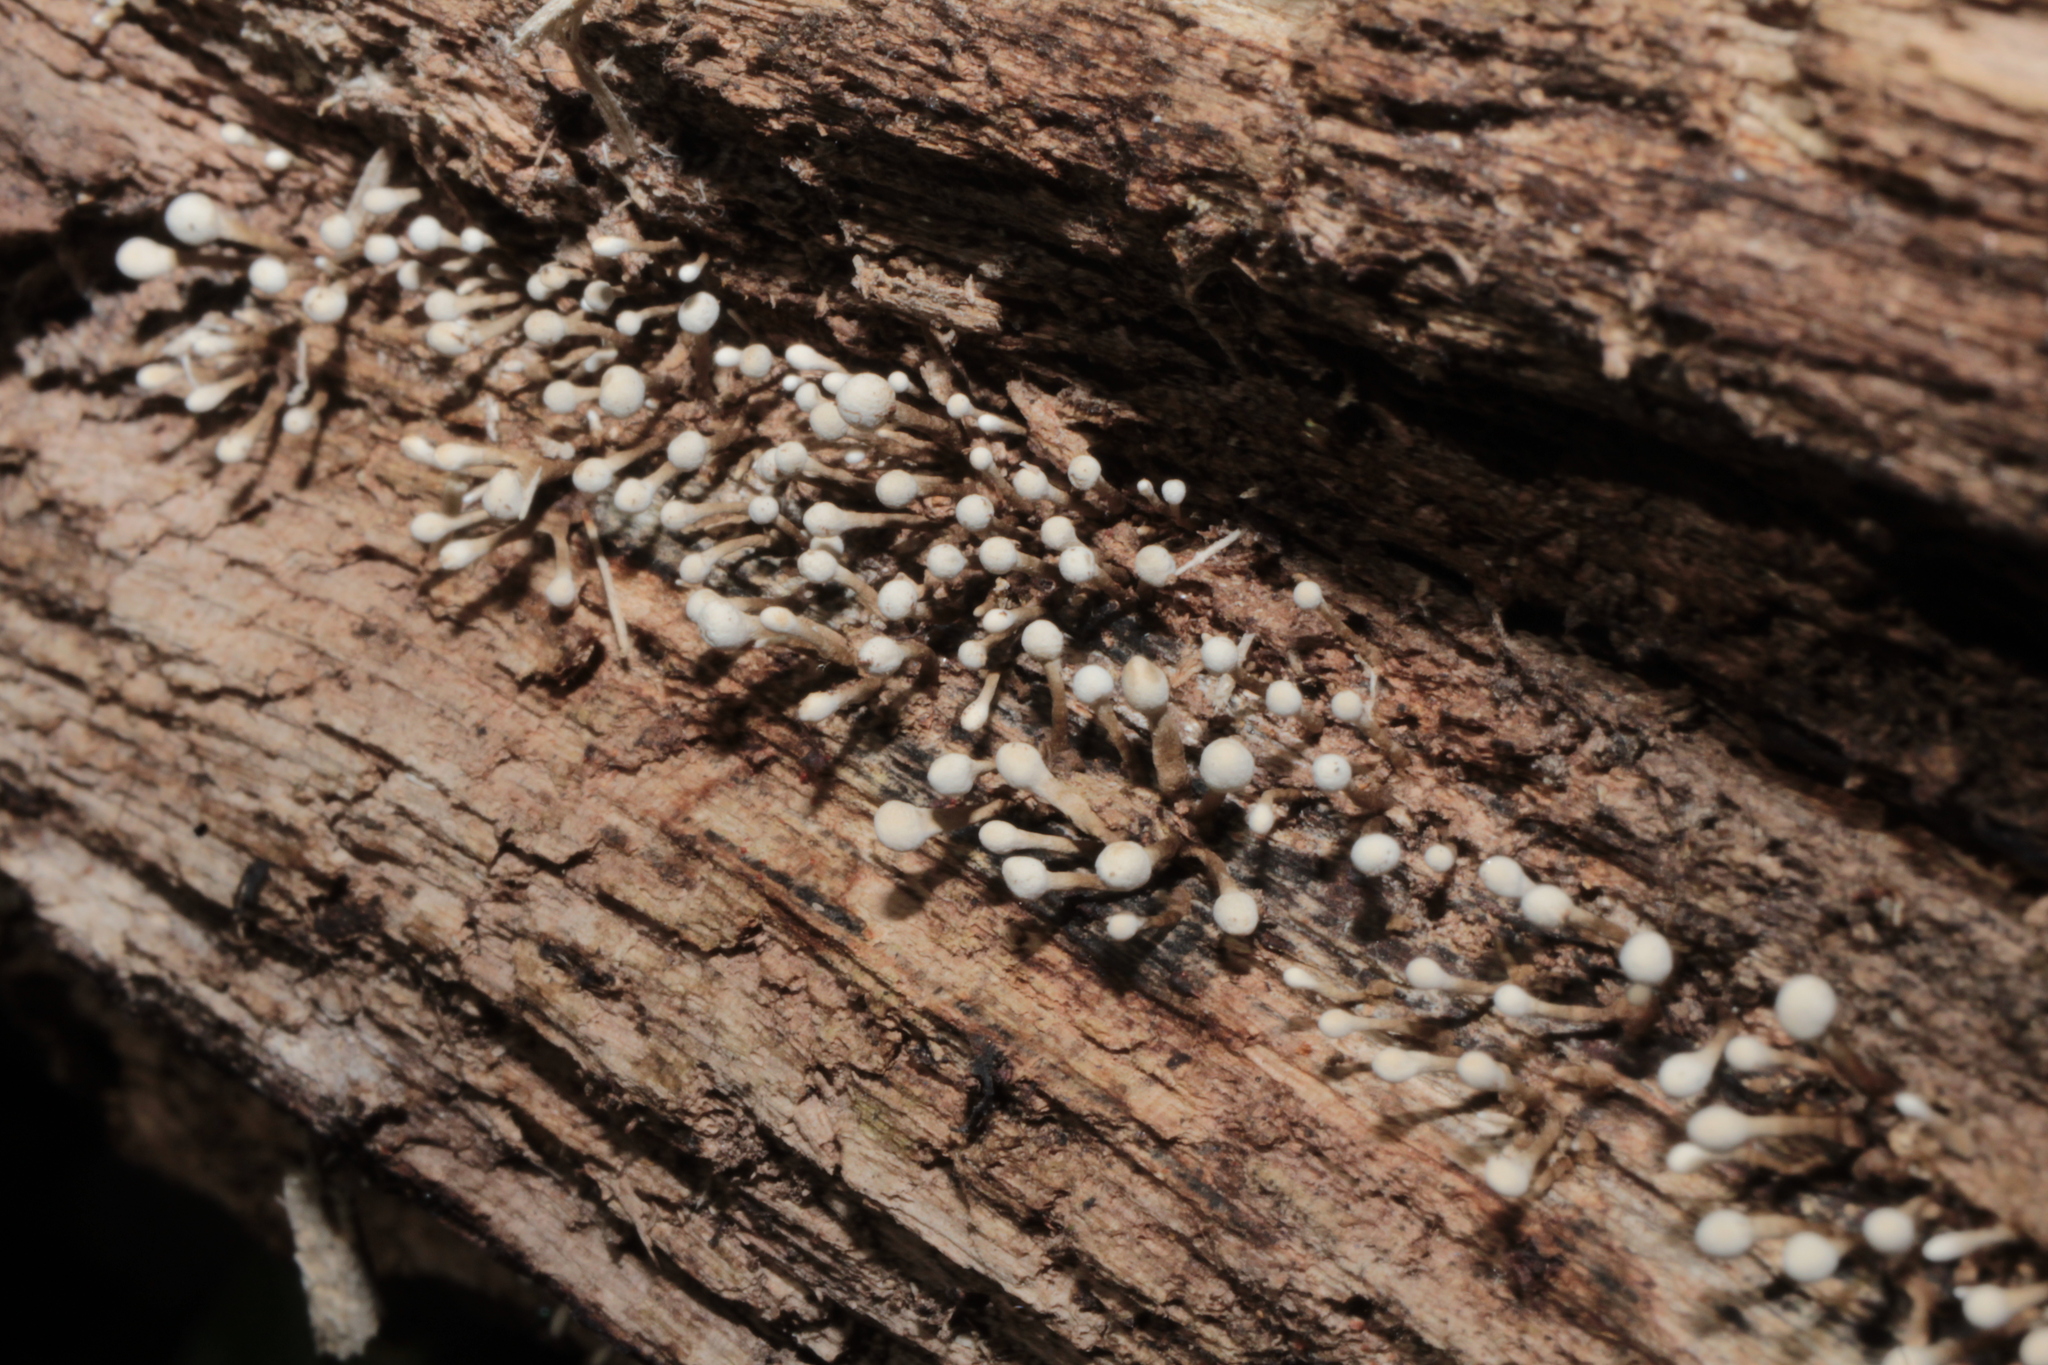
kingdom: Fungi
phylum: Basidiomycota
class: Atractiellomycetes
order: Atractiellales
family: Phleogenaceae
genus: Phleogena
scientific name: Phleogena faginea
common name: Fenugreek stalkball
